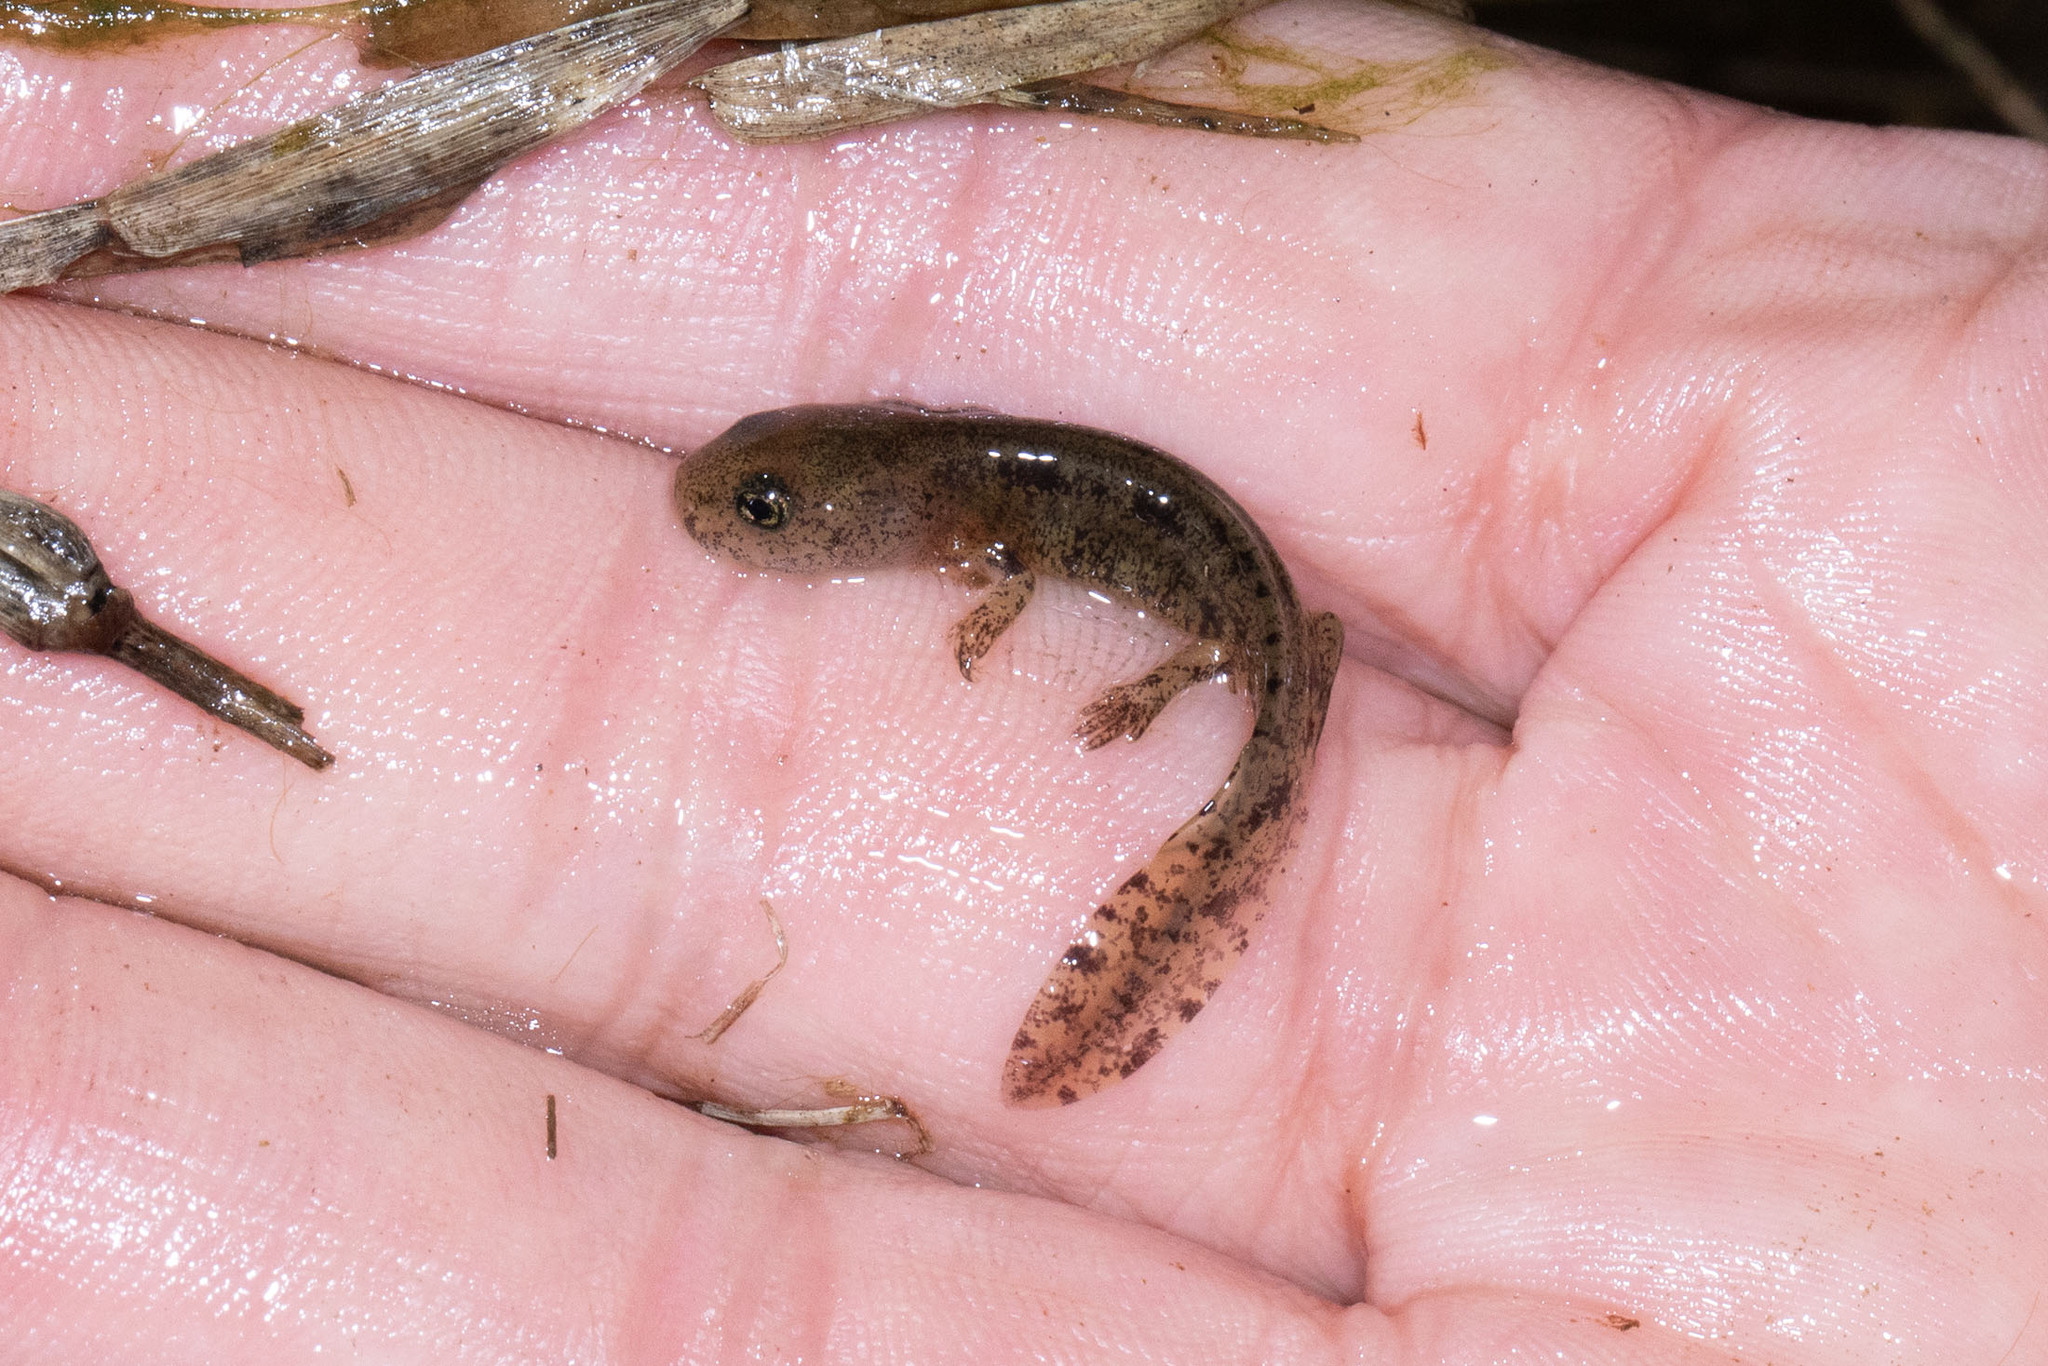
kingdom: Animalia
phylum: Chordata
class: Amphibia
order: Caudata
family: Salamandridae
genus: Salamandra
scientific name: Salamandra salamandra
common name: Fire salamander
